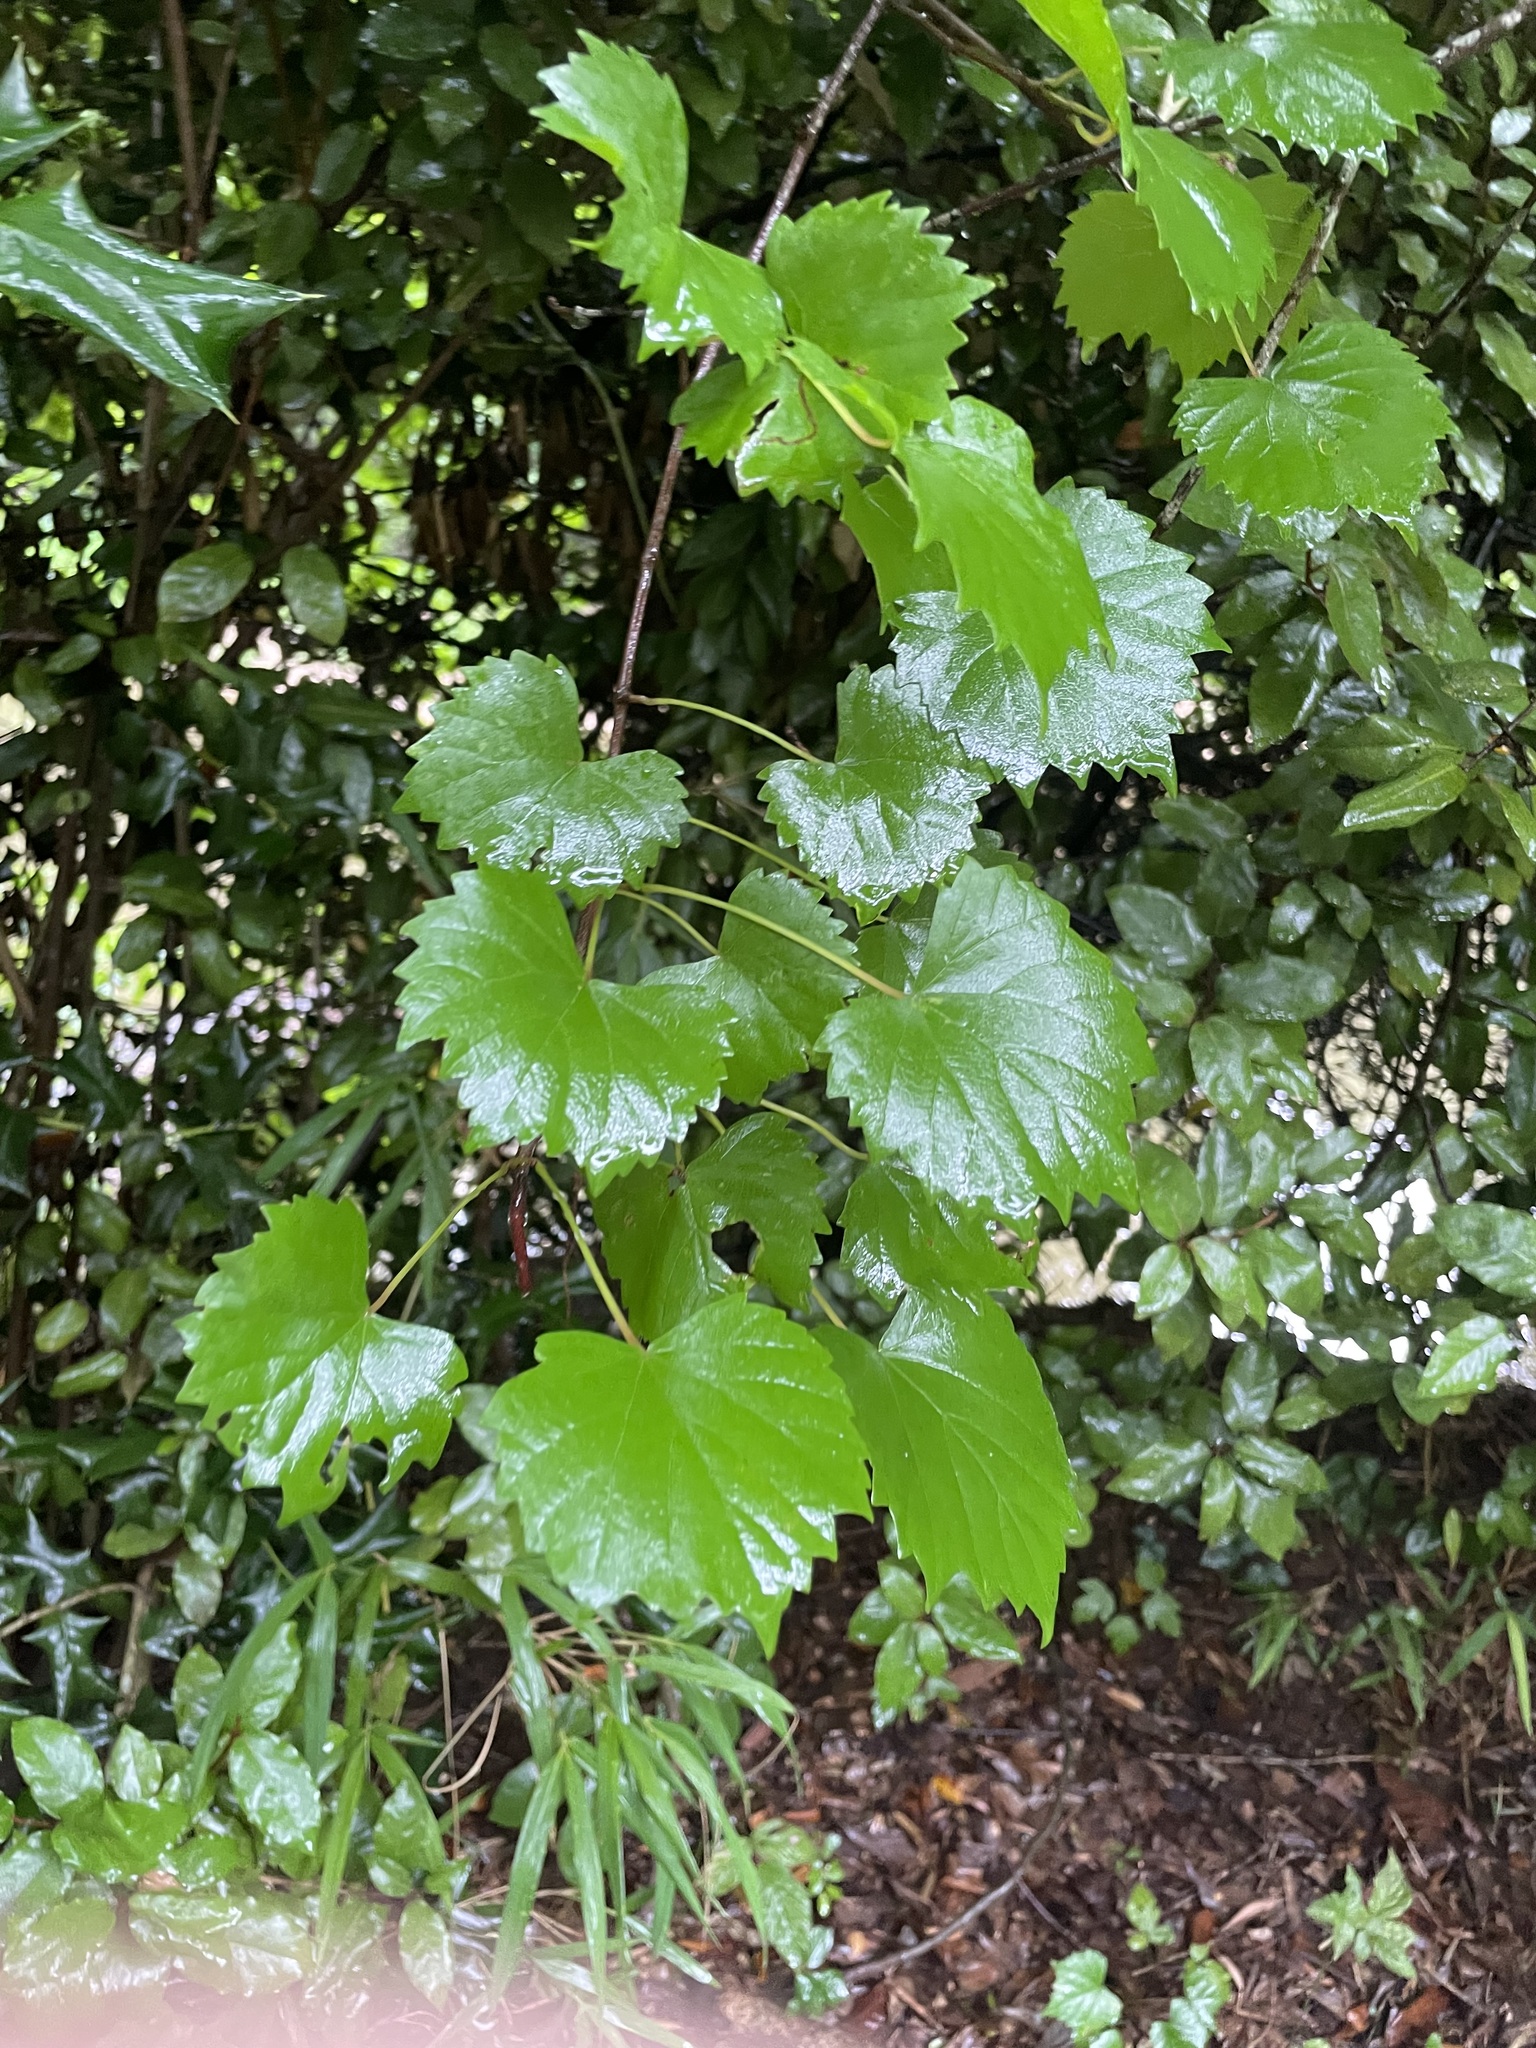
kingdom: Plantae
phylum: Tracheophyta
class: Magnoliopsida
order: Vitales
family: Vitaceae
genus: Vitis
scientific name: Vitis rotundifolia
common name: Muscadine grape
